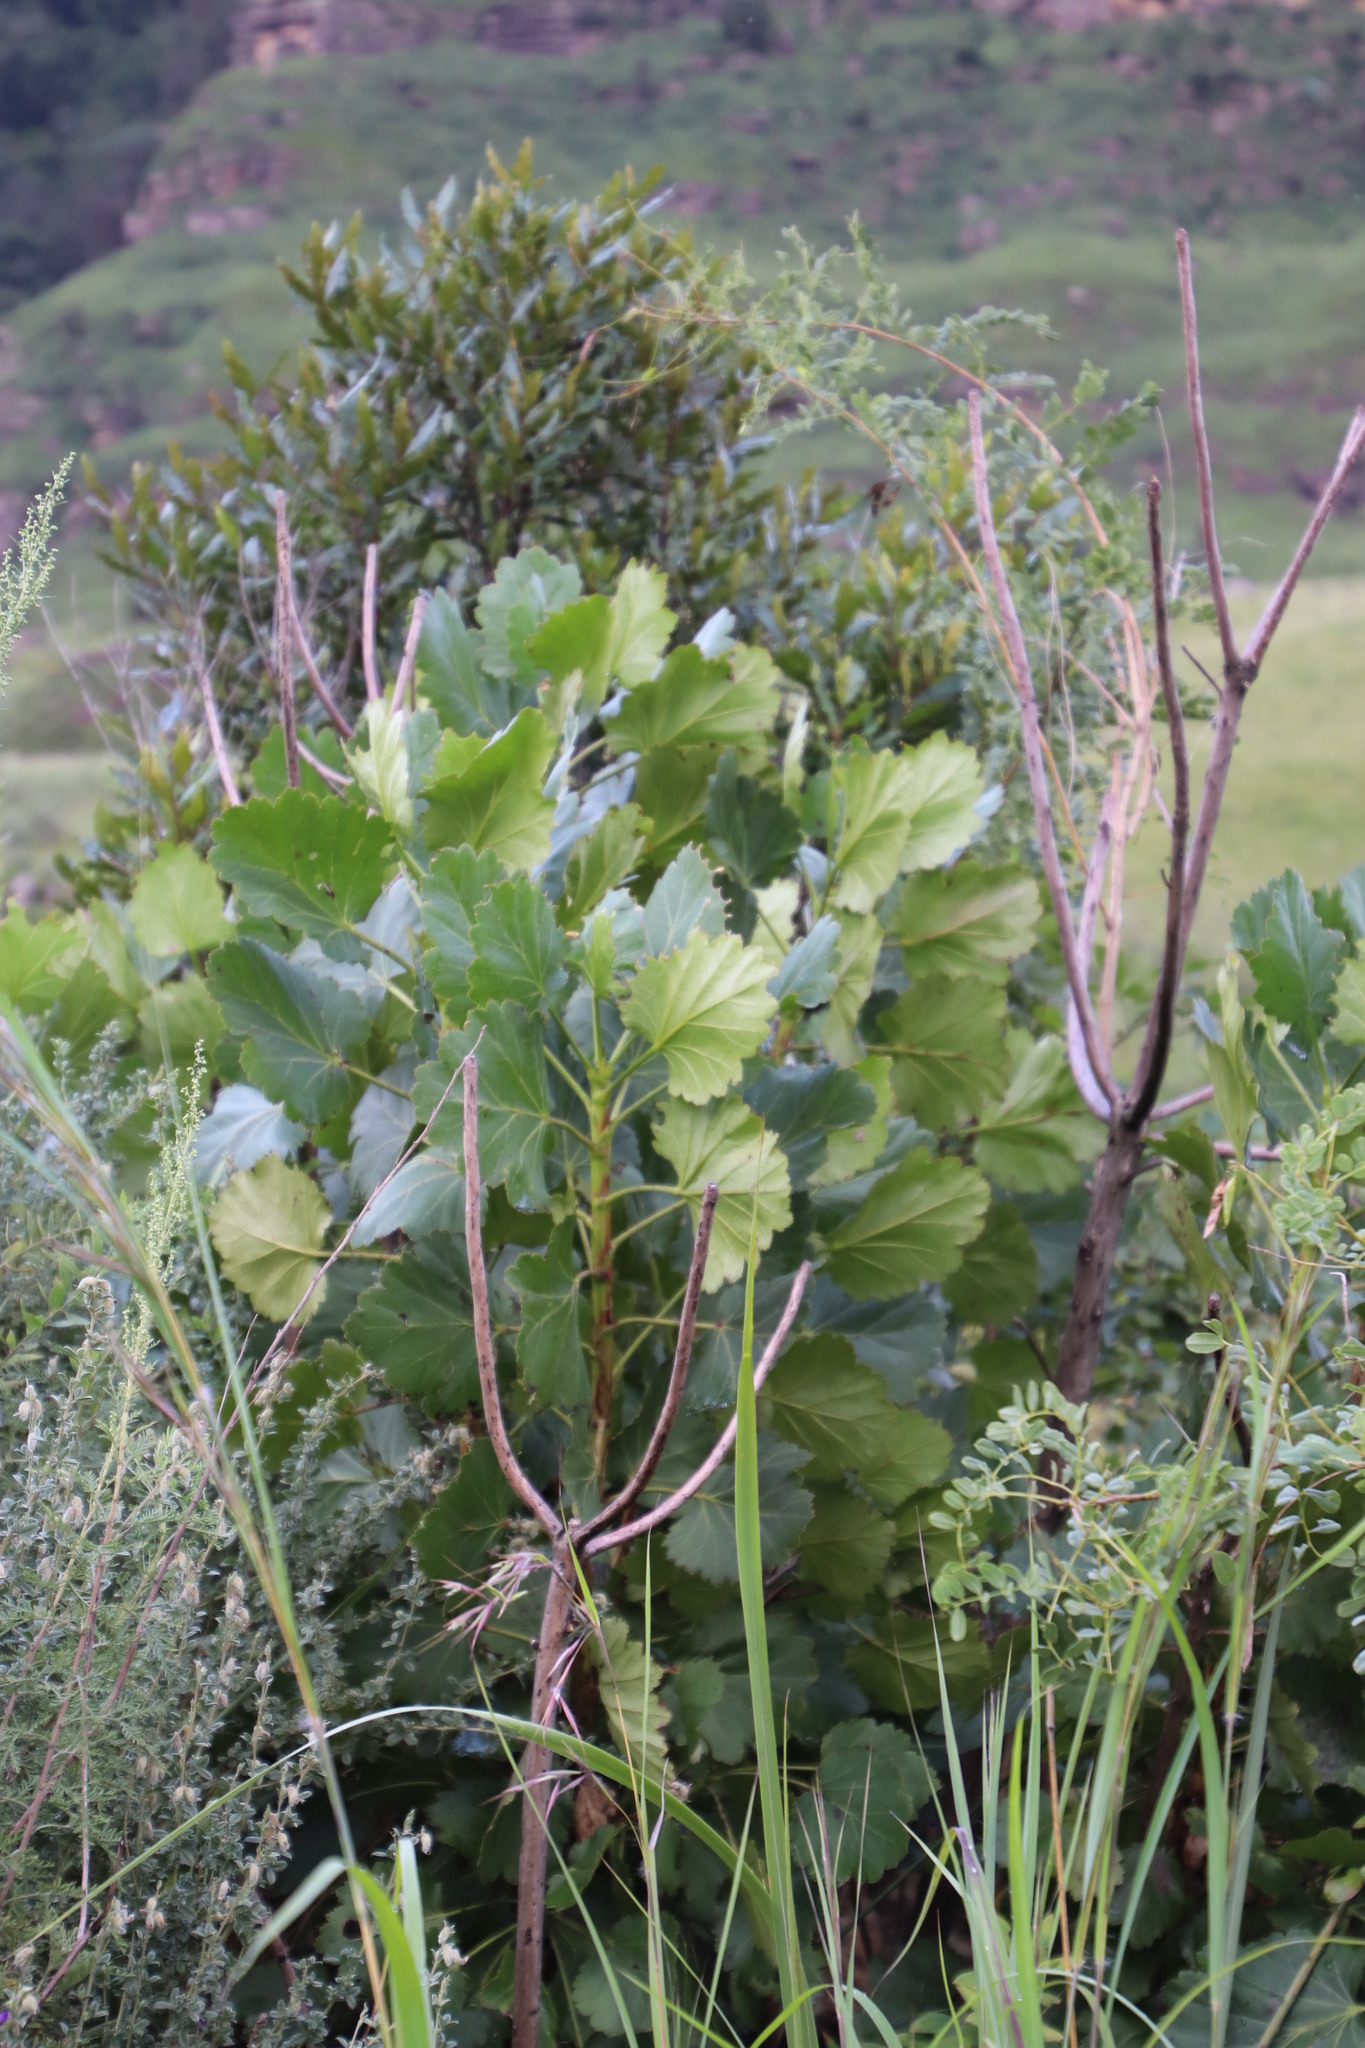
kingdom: Plantae
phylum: Tracheophyta
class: Magnoliopsida
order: Geraniales
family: Francoaceae
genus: Greyia
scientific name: Greyia sutherlandii
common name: Glossy bottlebrush
